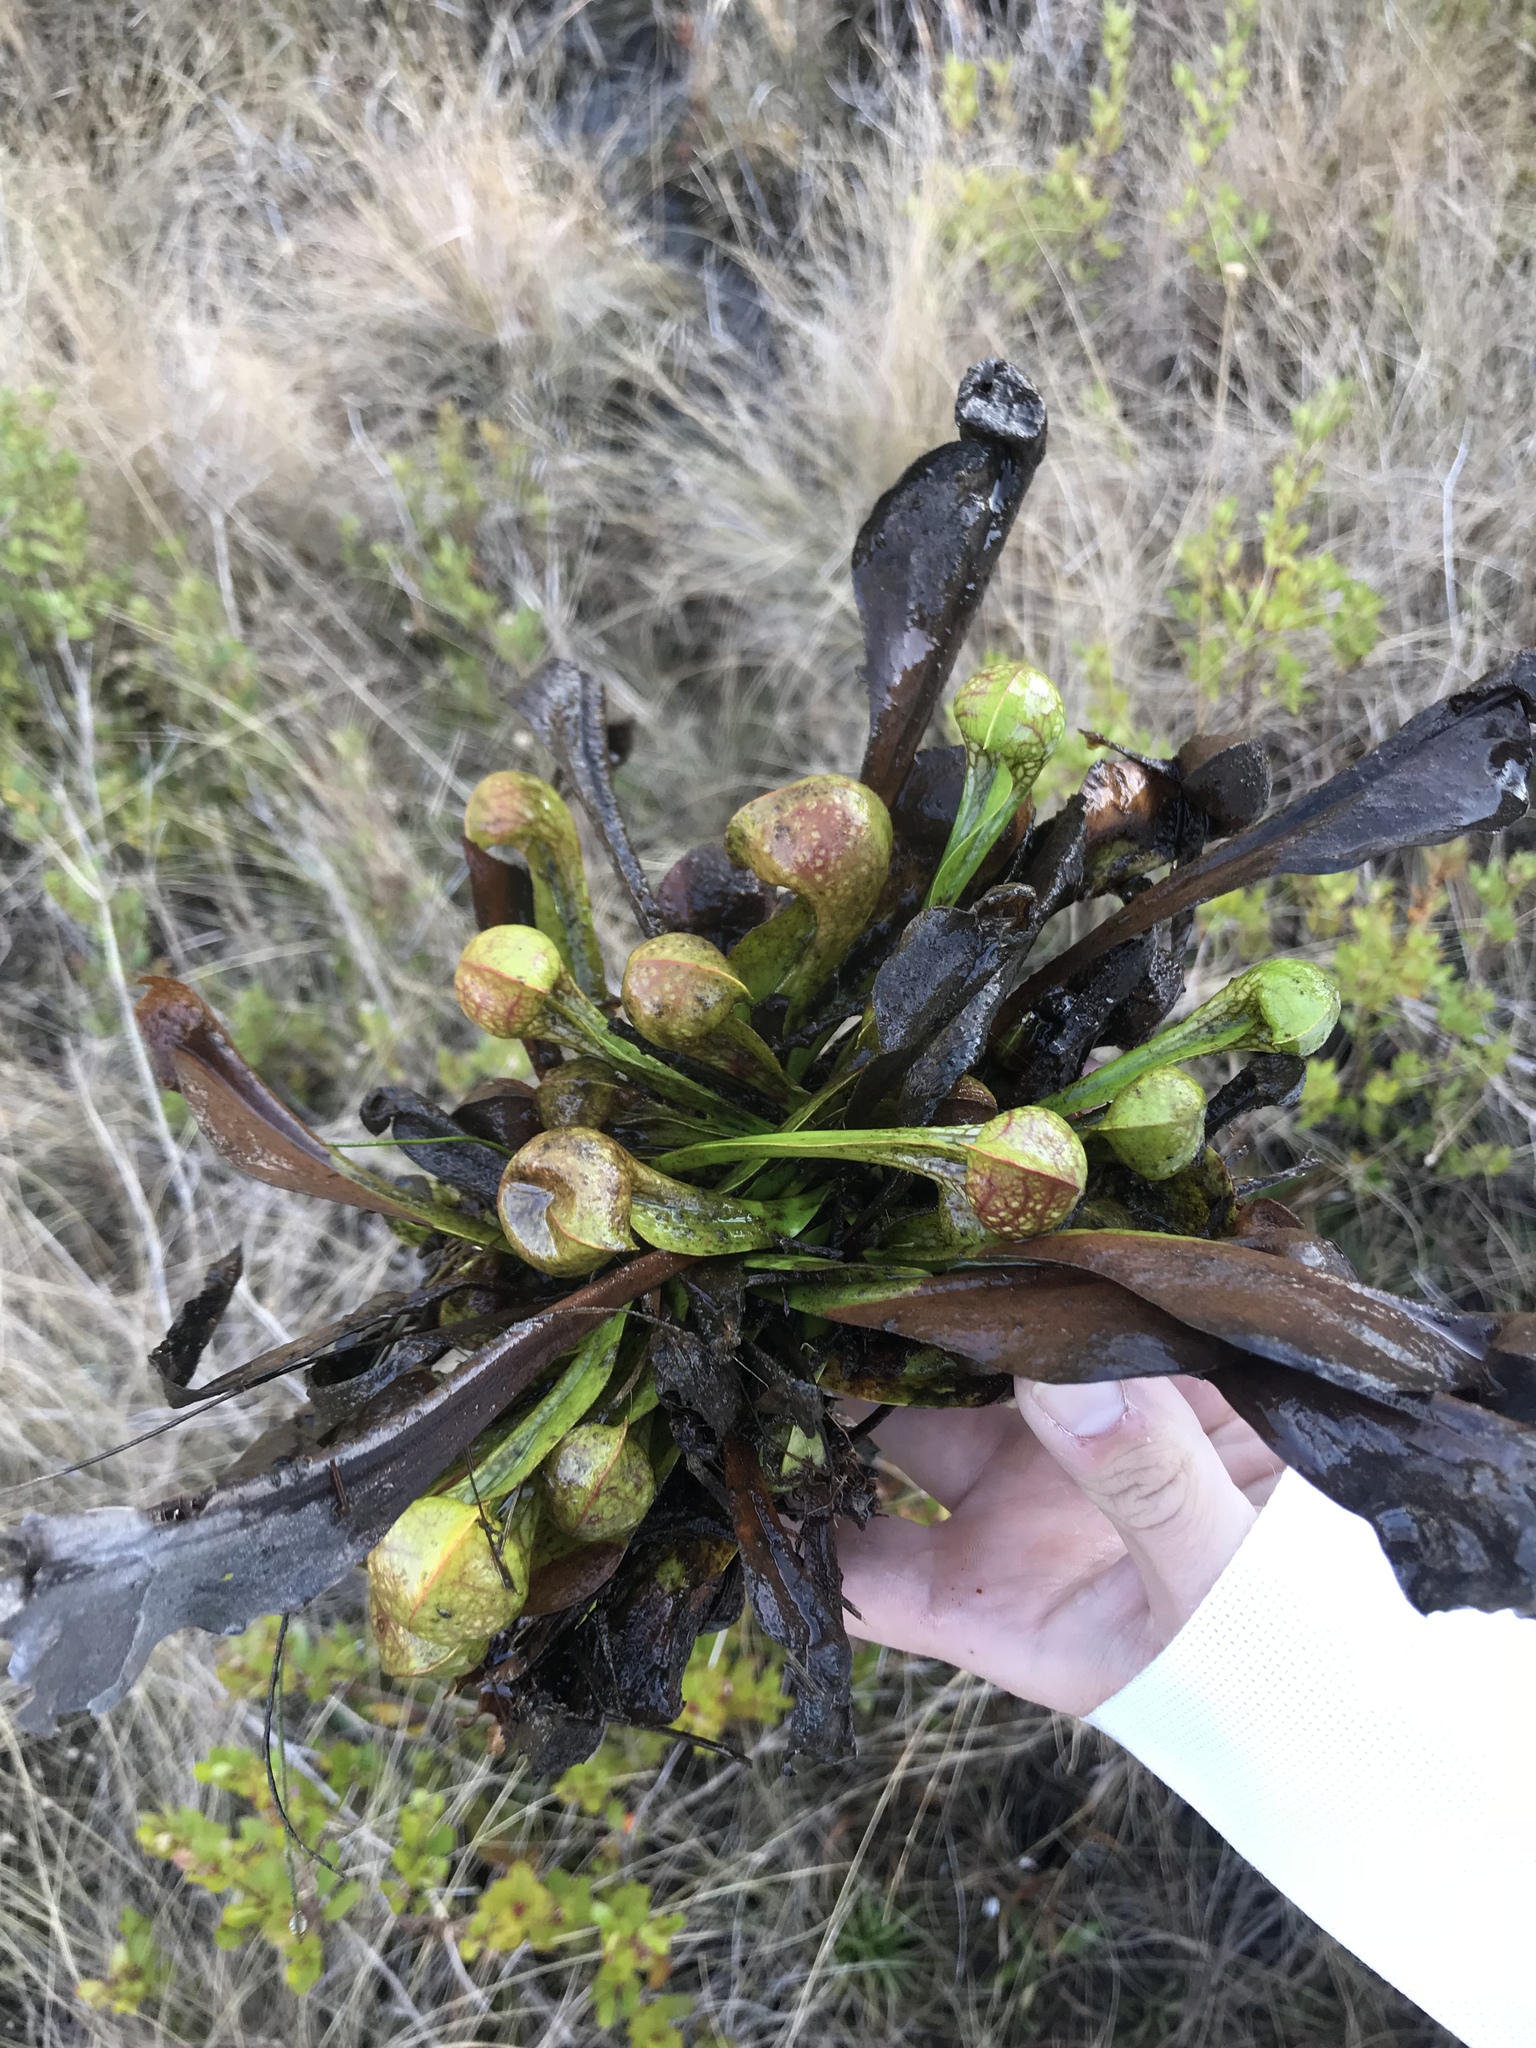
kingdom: Plantae
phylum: Tracheophyta
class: Magnoliopsida
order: Ericales
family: Sarraceniaceae
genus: Sarracenia
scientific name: Sarracenia psittacina
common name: Parrot pitcherplant
